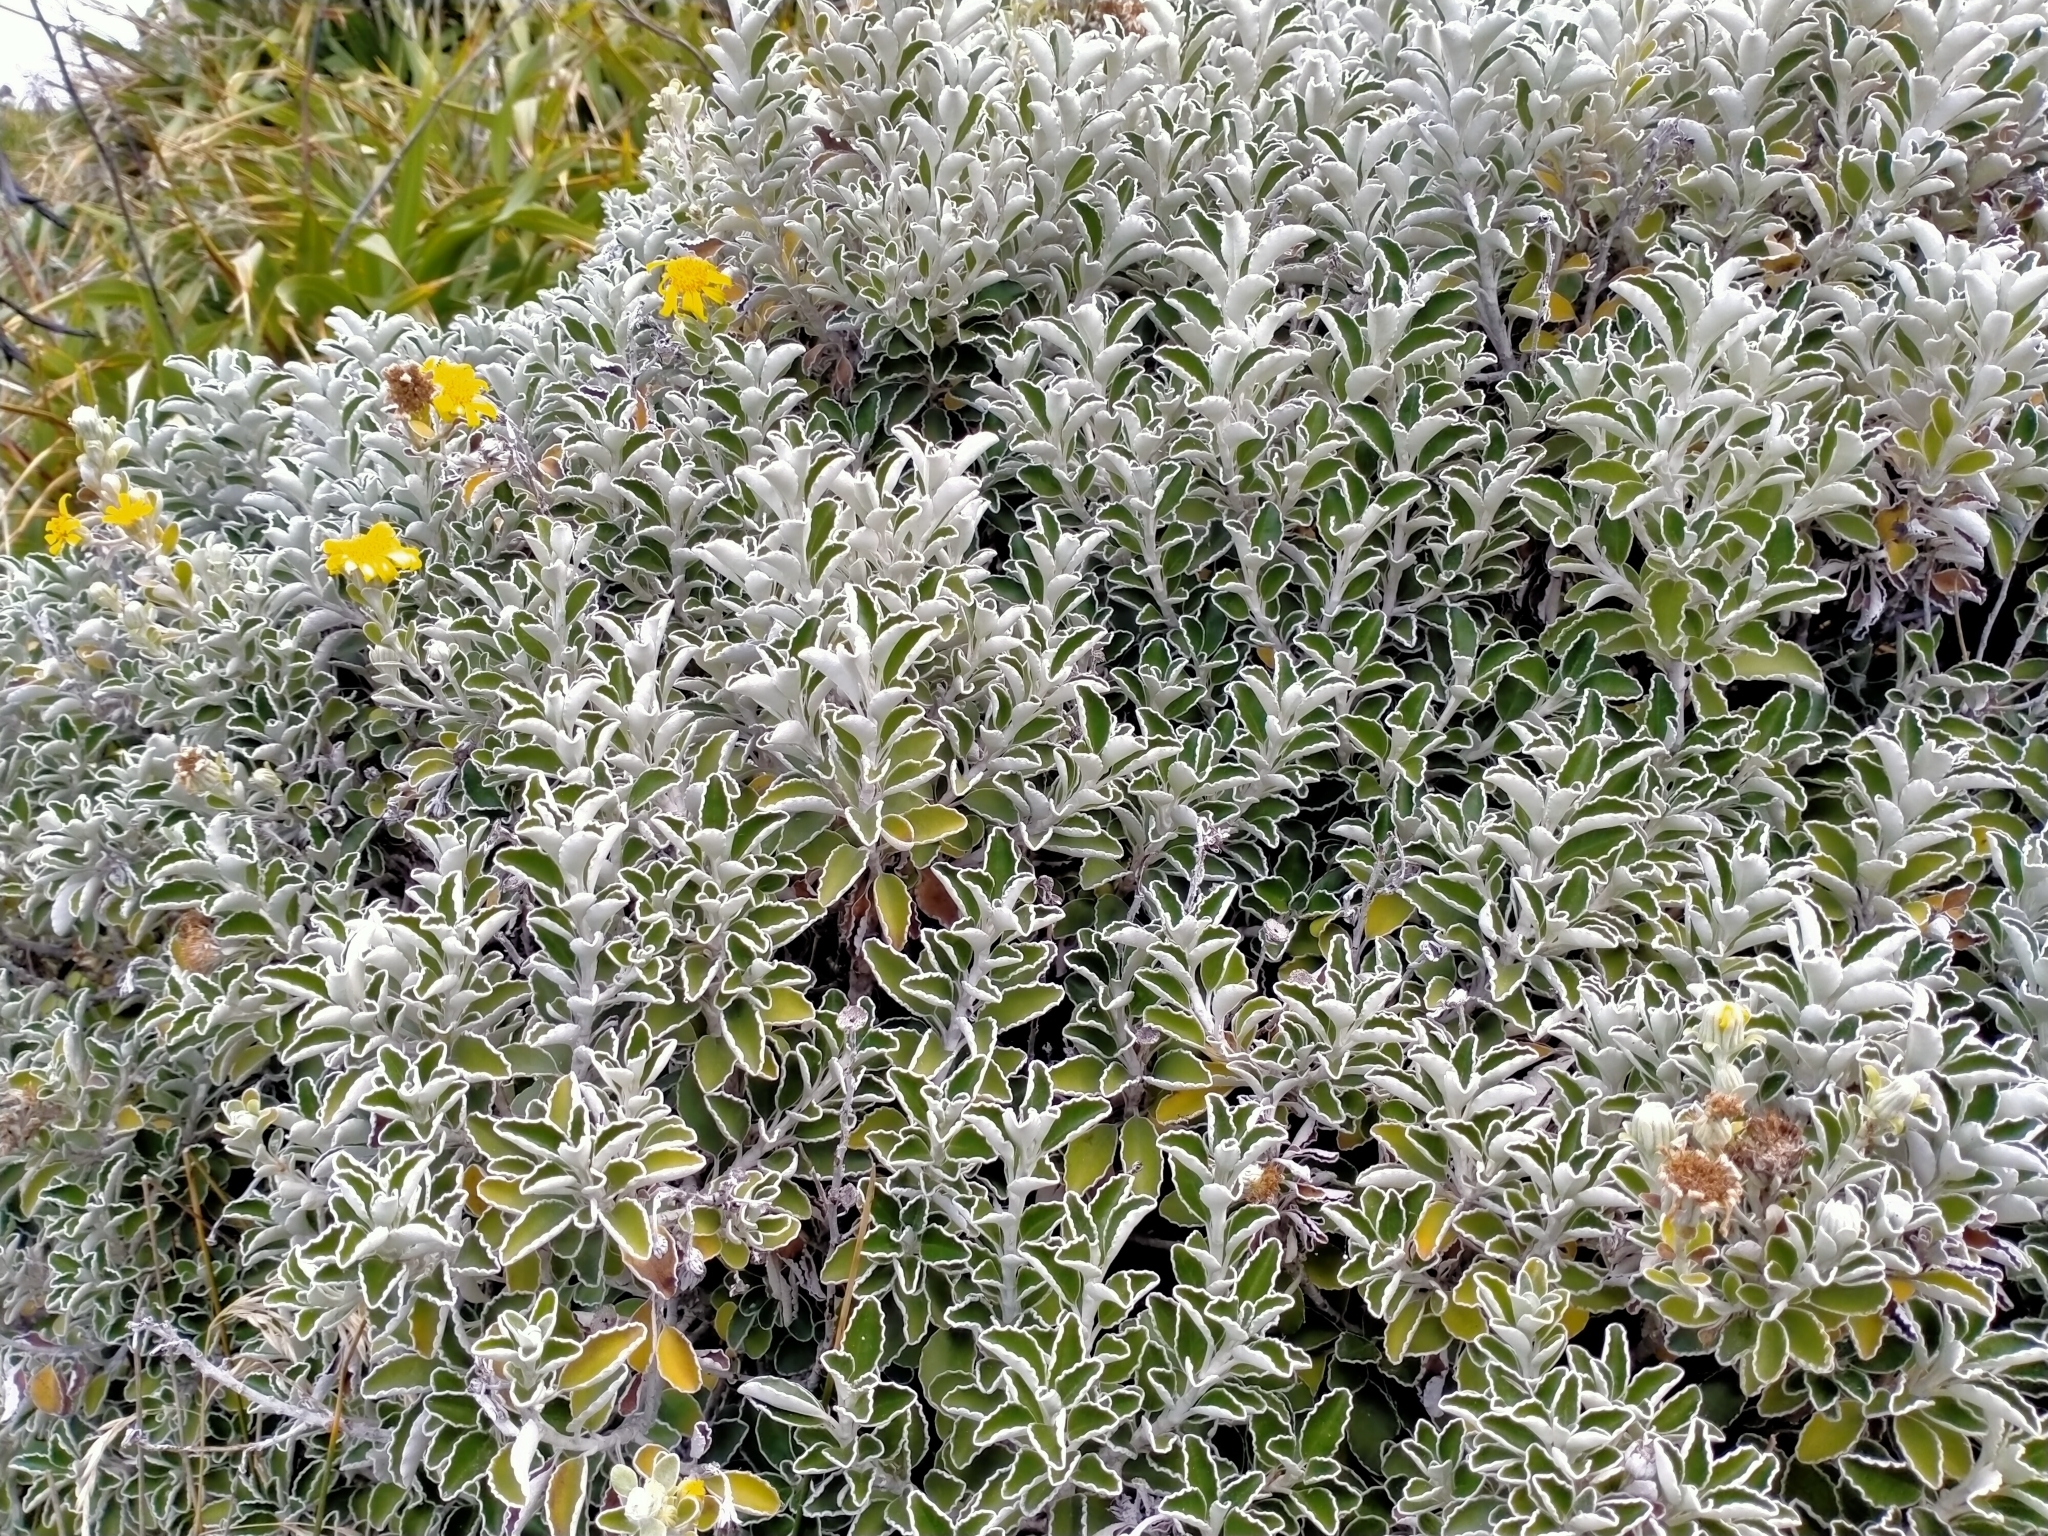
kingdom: Plantae
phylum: Tracheophyta
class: Magnoliopsida
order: Asterales
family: Asteraceae
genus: Brachyglottis
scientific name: Brachyglottis compacta
